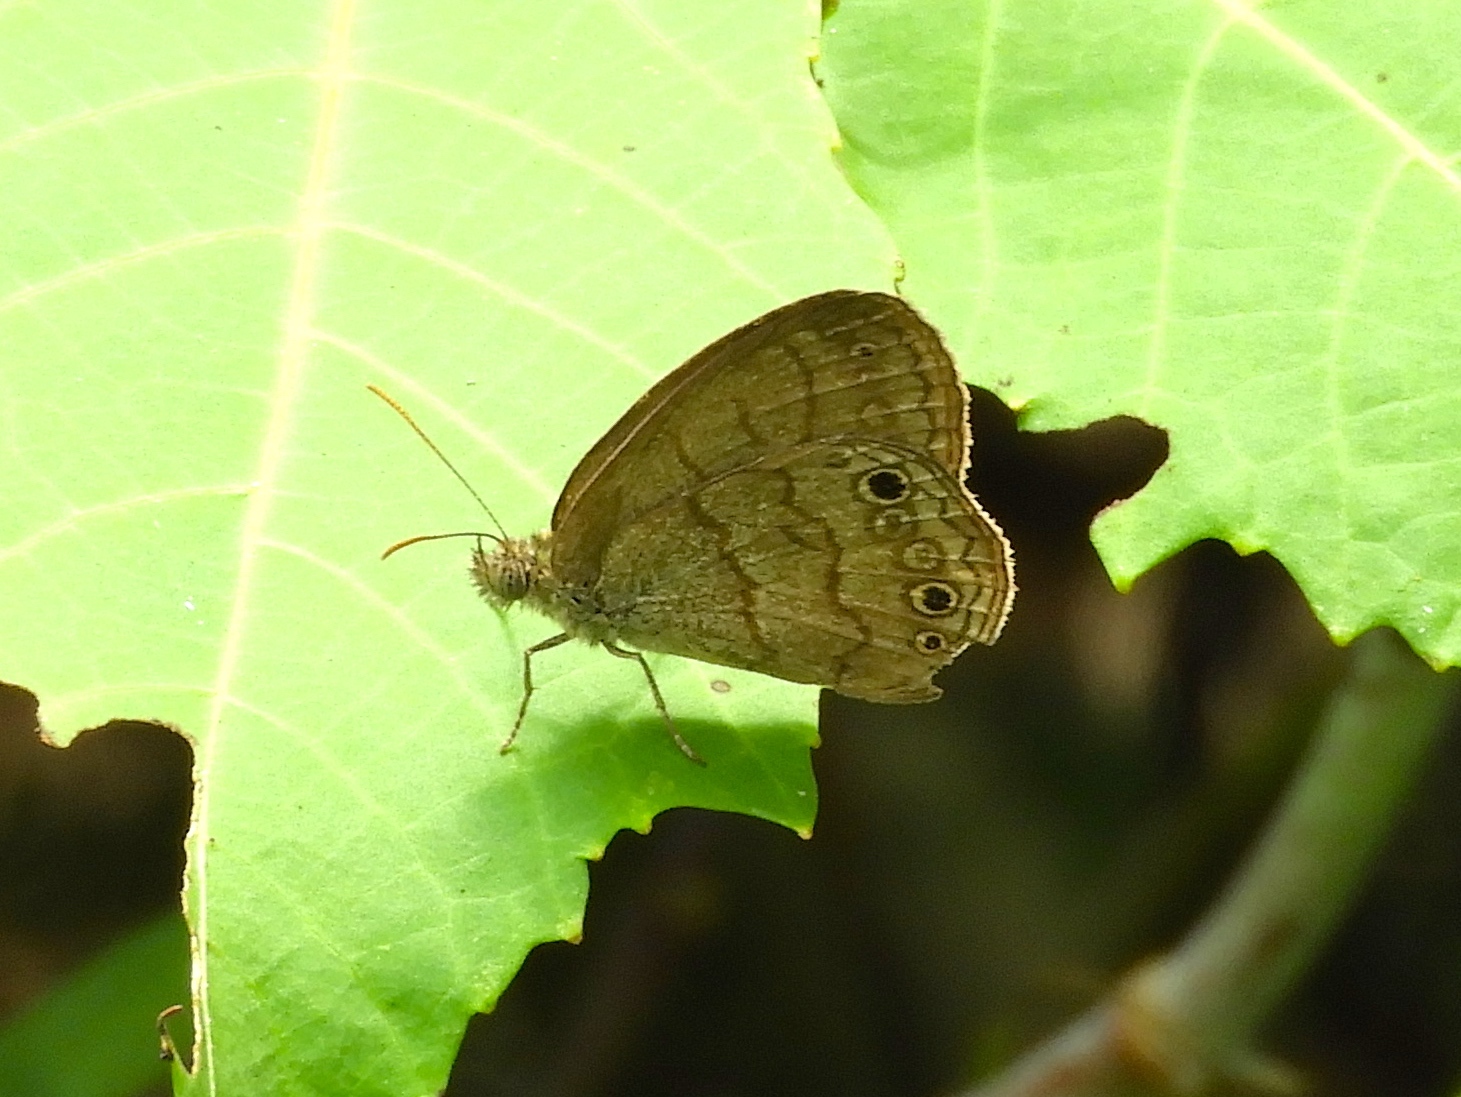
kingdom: Animalia
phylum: Arthropoda
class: Insecta
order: Lepidoptera
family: Nymphalidae
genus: Hermeuptychia
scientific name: Hermeuptychia
